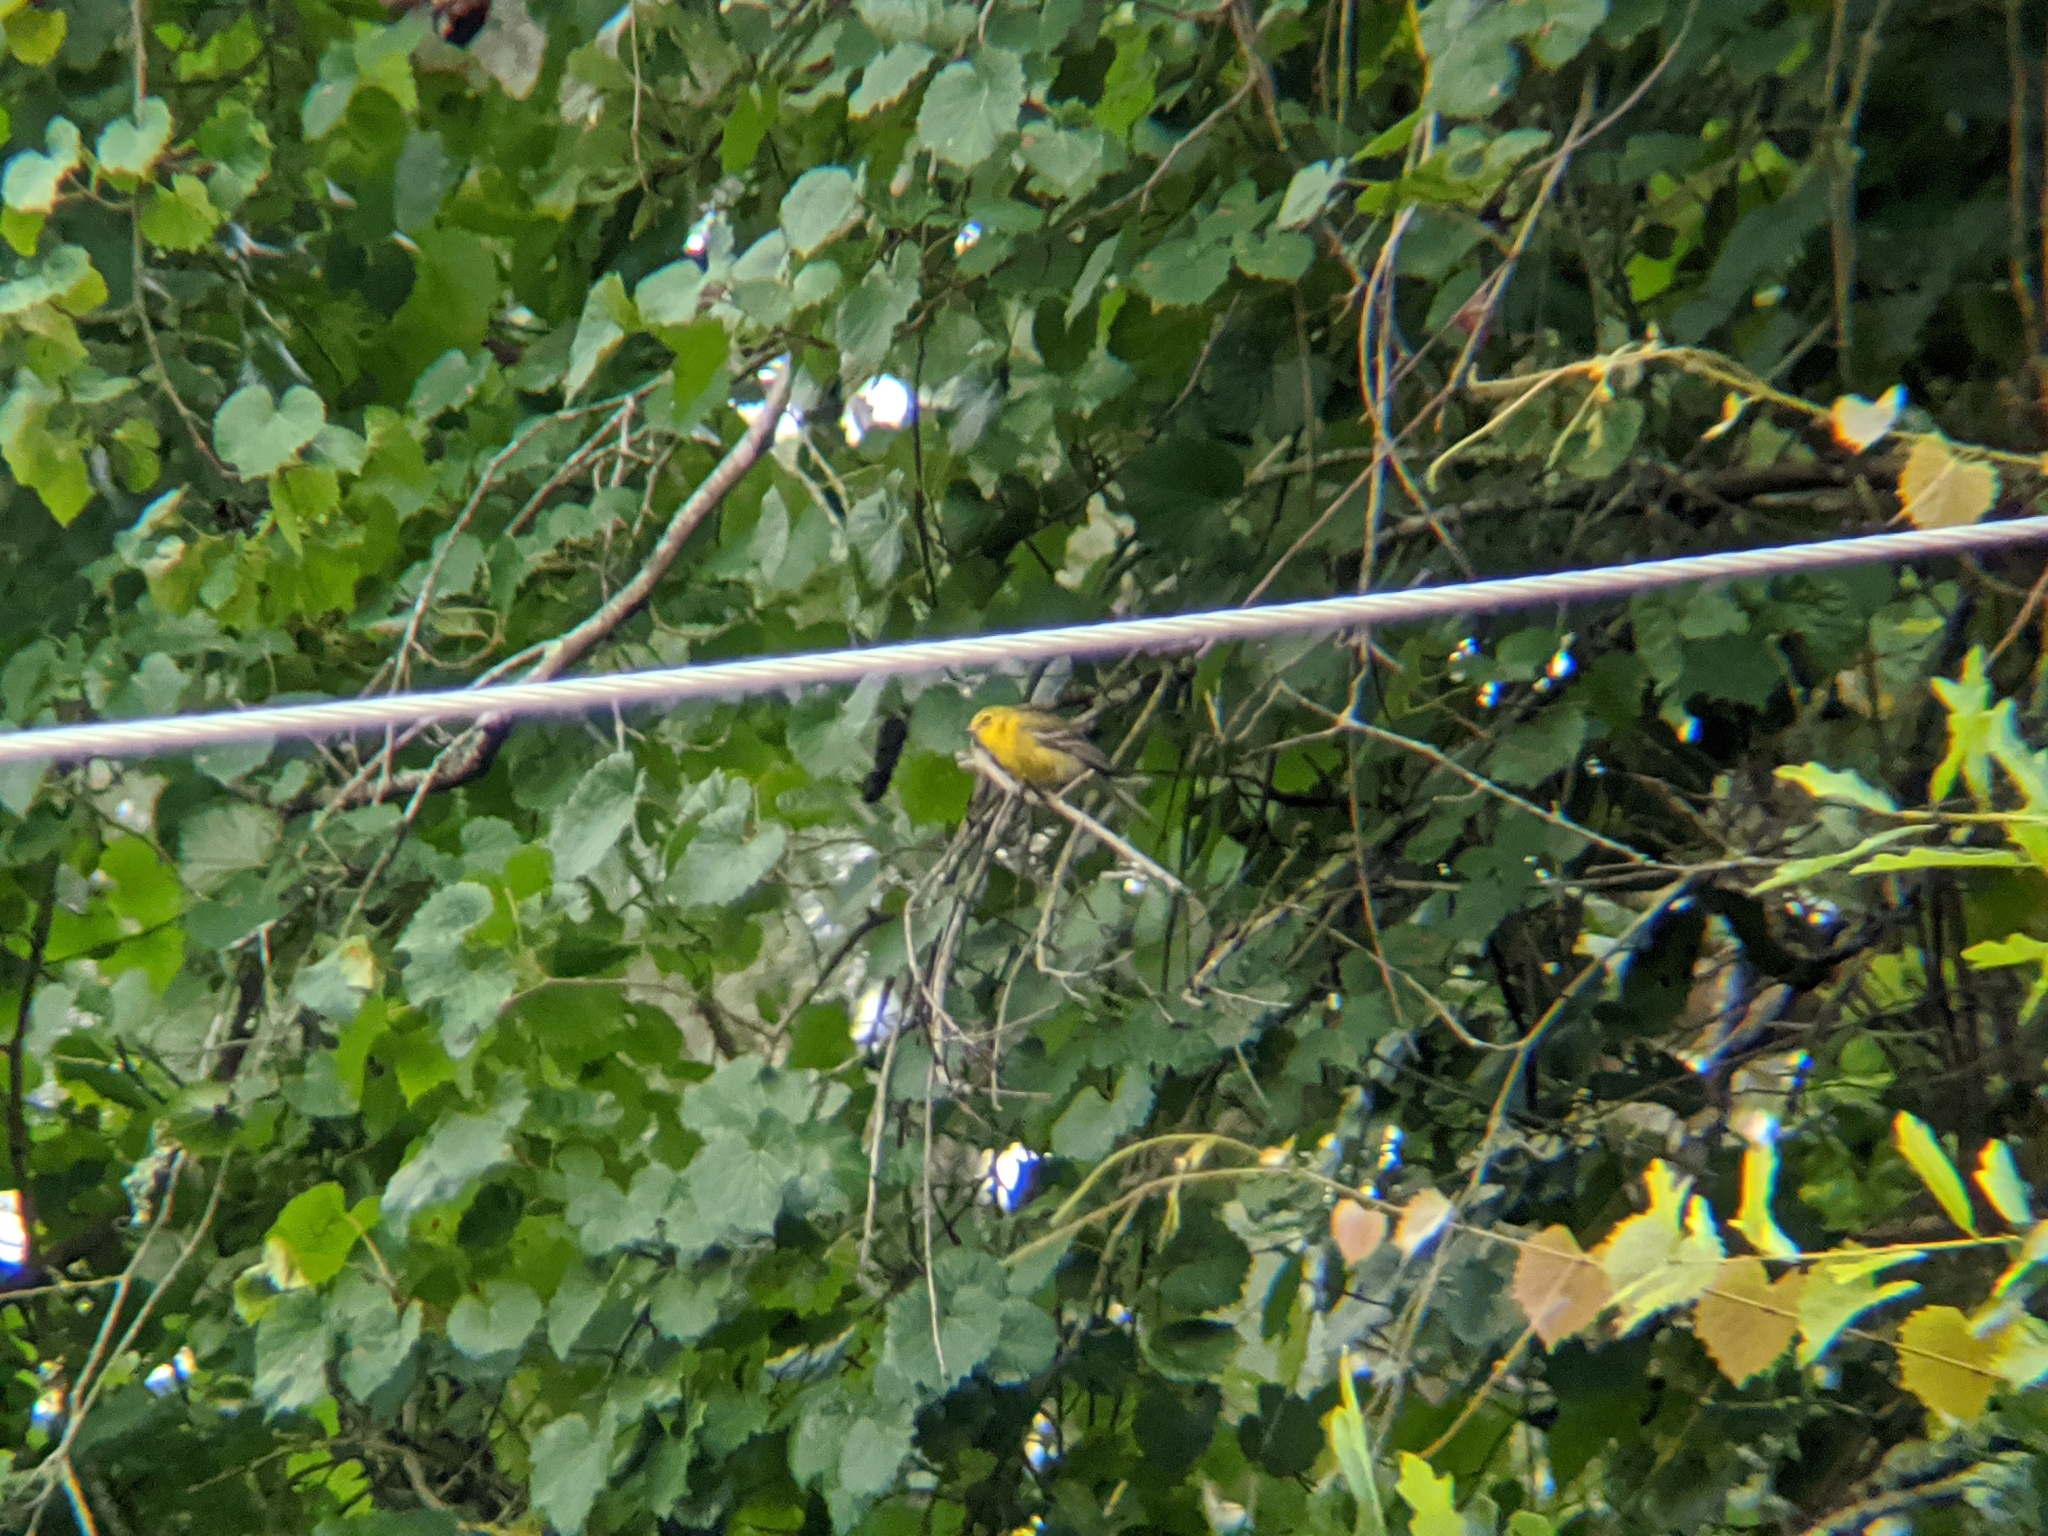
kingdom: Animalia
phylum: Chordata
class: Aves
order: Passeriformes
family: Parulidae
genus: Setophaga
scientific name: Setophaga pinus
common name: Pine warbler
